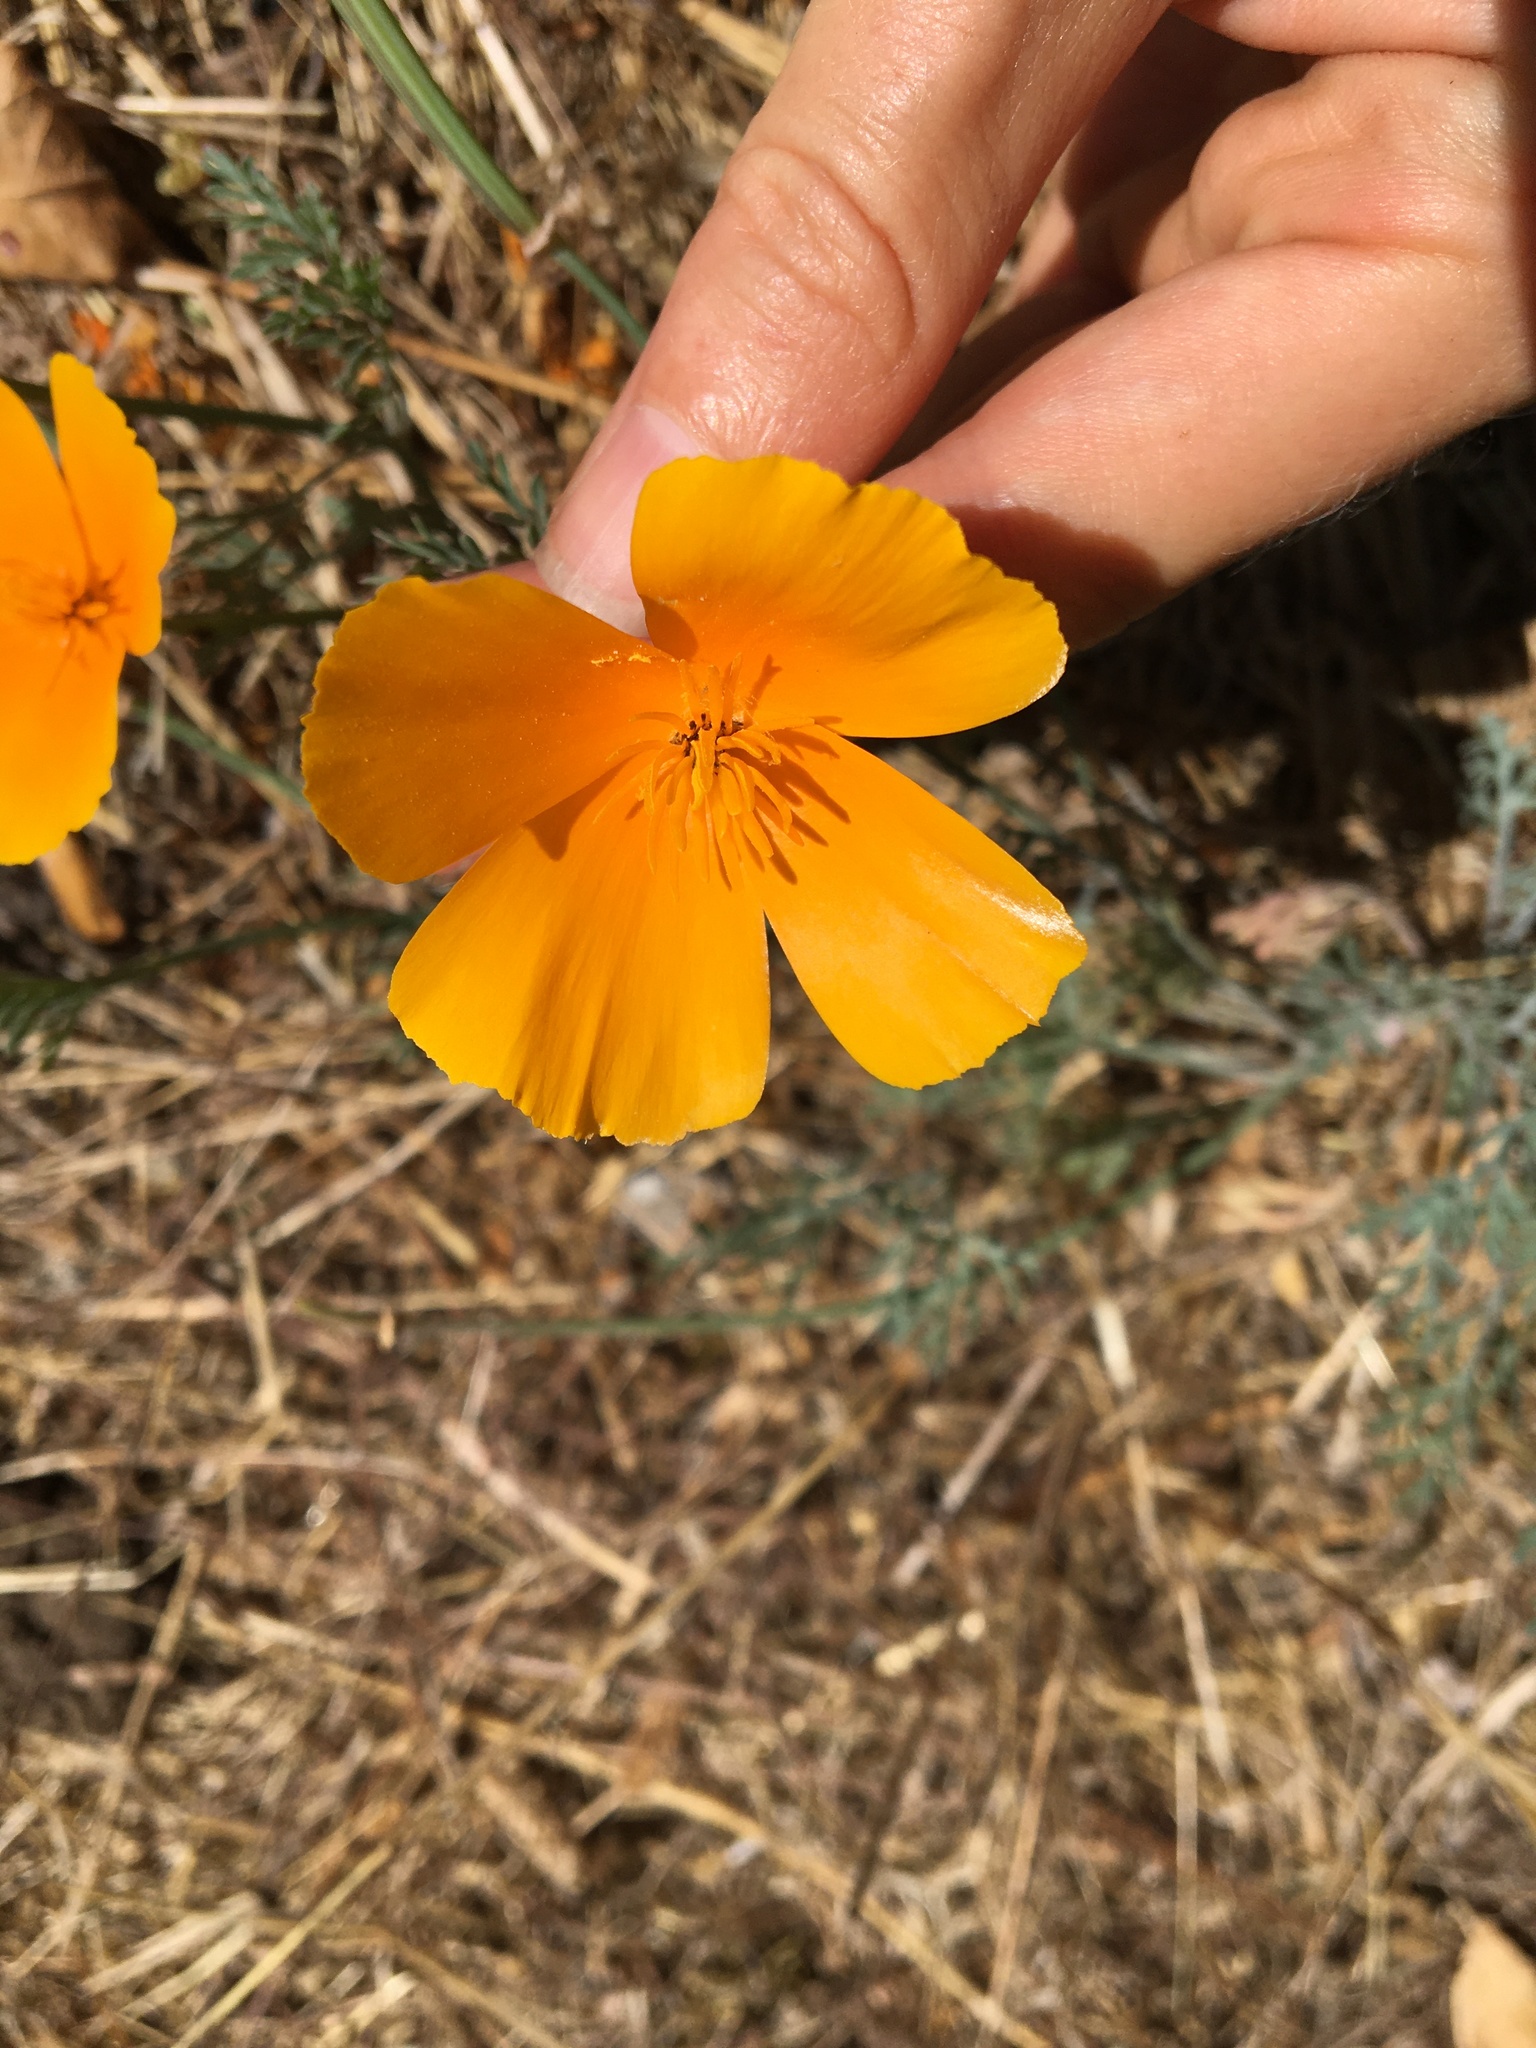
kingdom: Plantae
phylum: Tracheophyta
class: Magnoliopsida
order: Ranunculales
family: Papaveraceae
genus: Eschscholzia
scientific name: Eschscholzia californica
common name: California poppy
